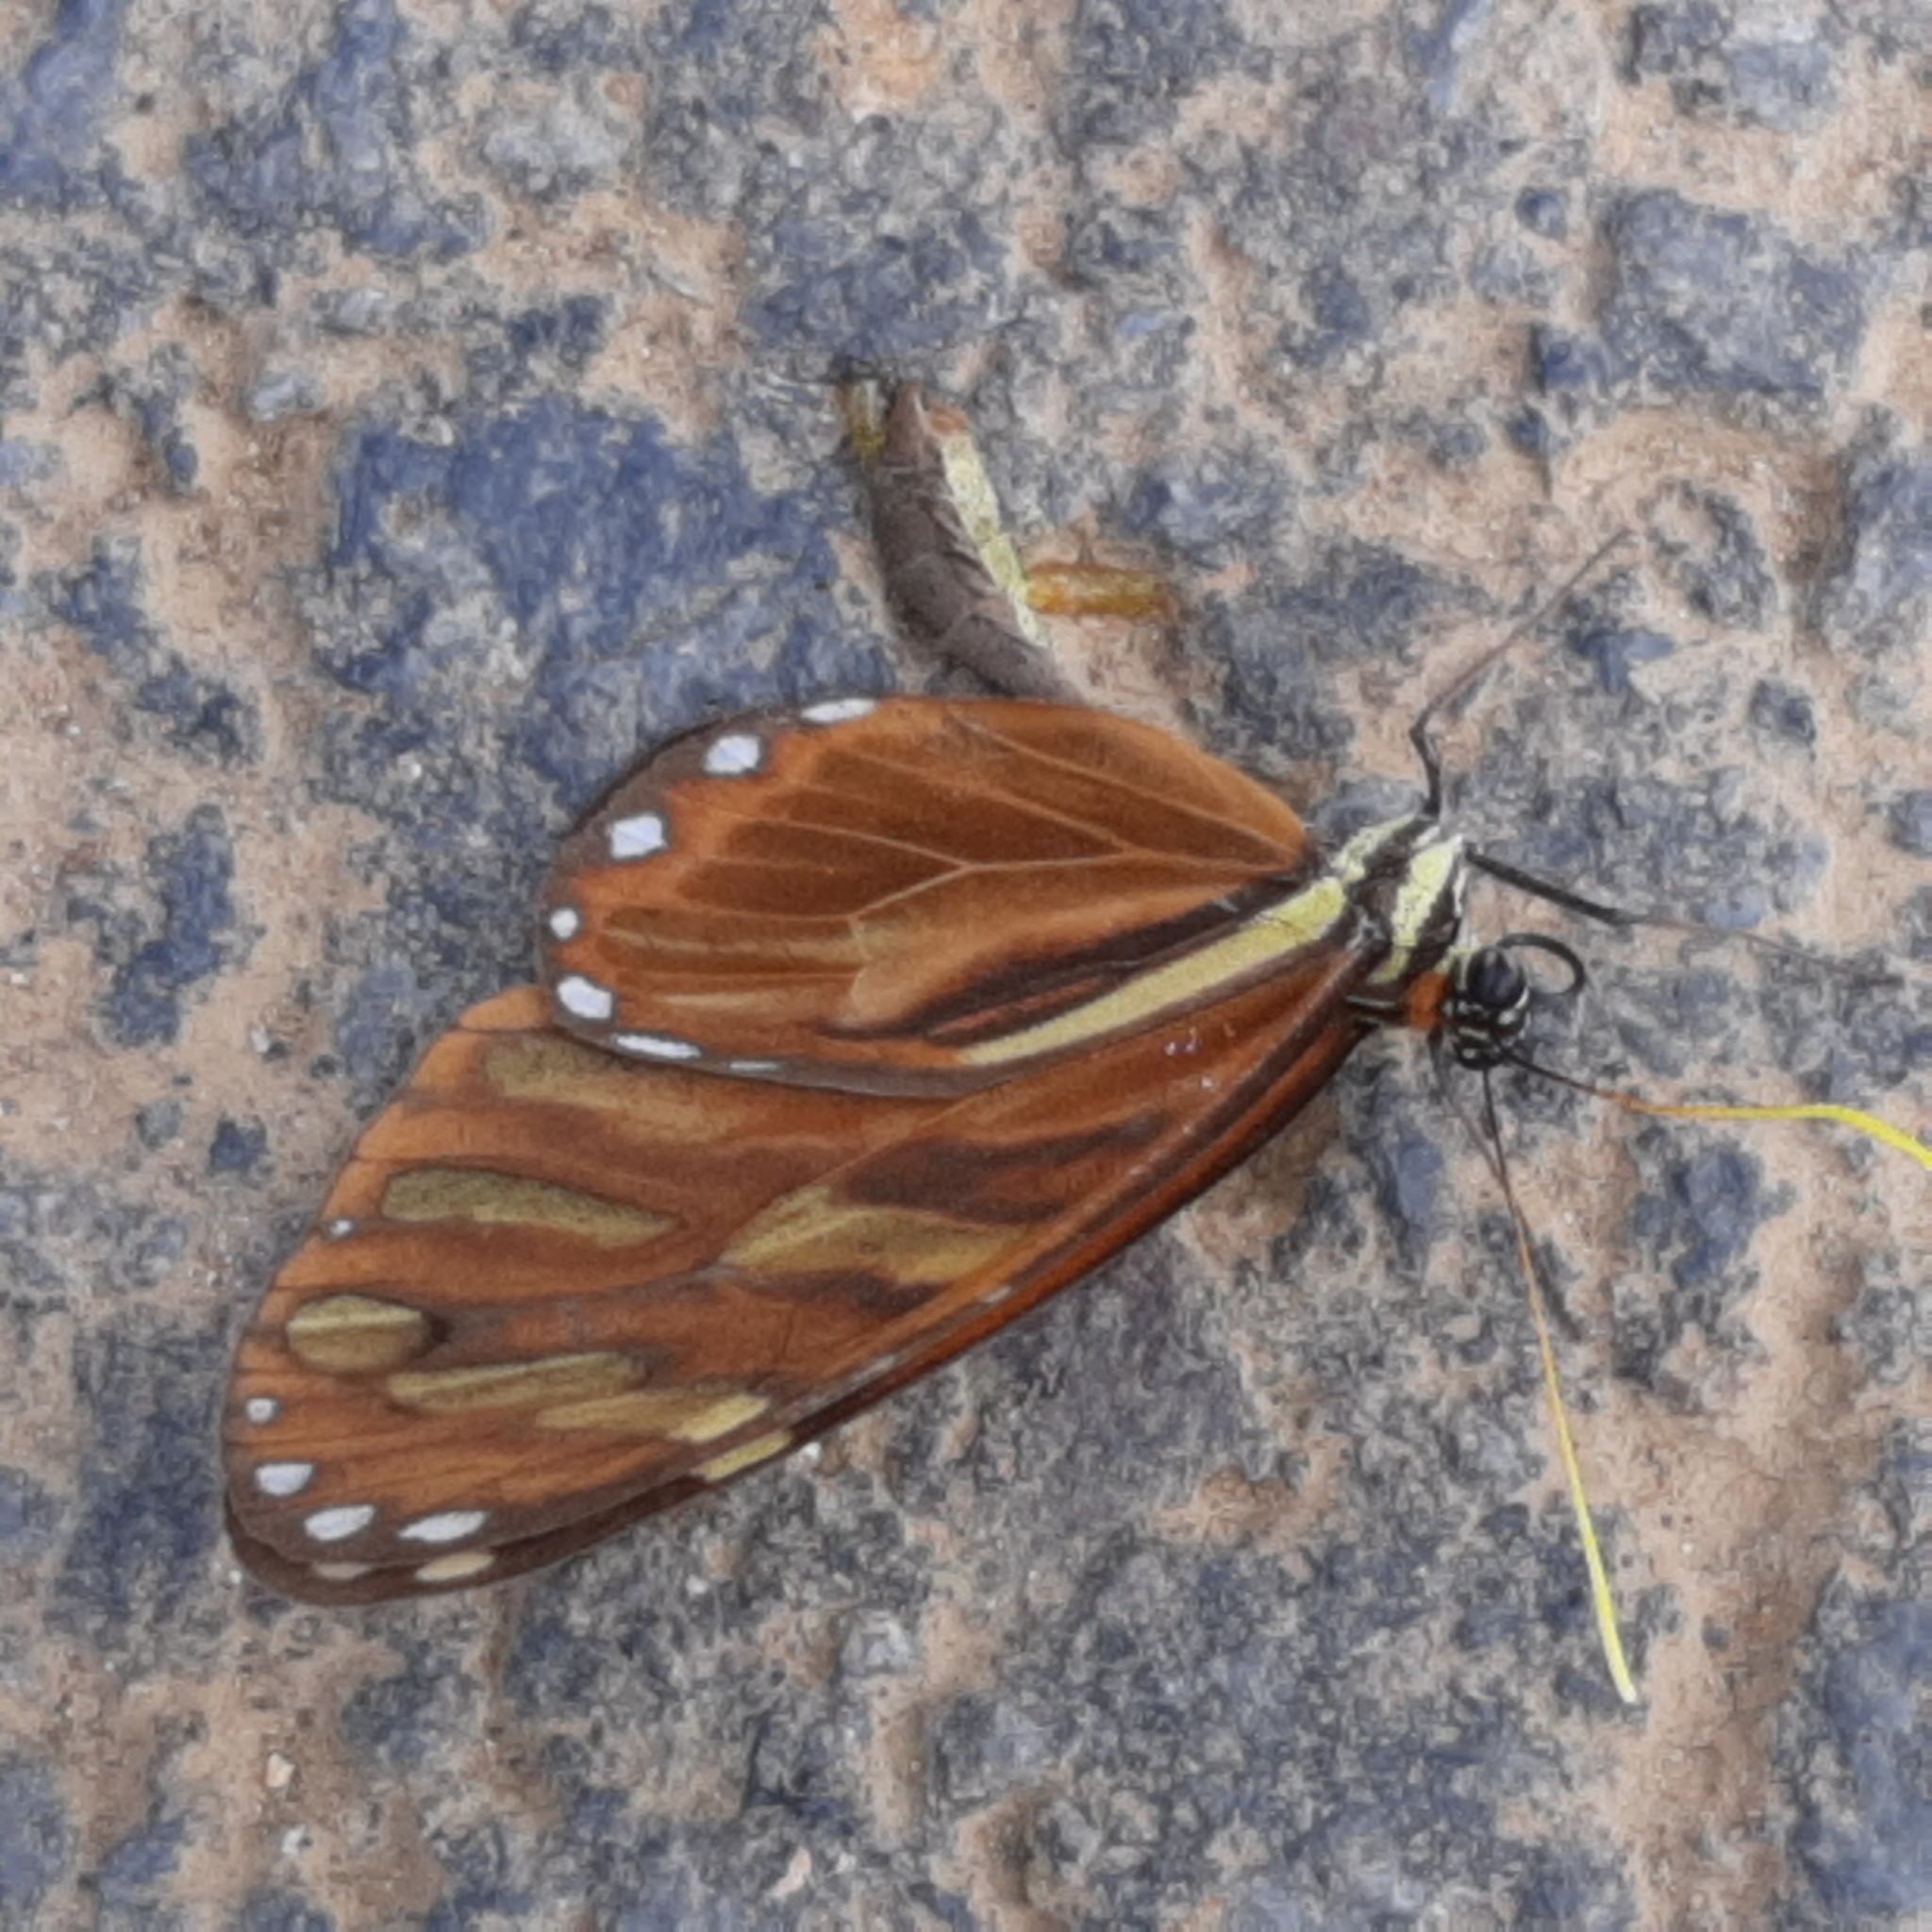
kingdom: Animalia
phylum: Arthropoda
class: Insecta
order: Lepidoptera
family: Nymphalidae
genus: Ithomia
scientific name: Ithomia heraldica
